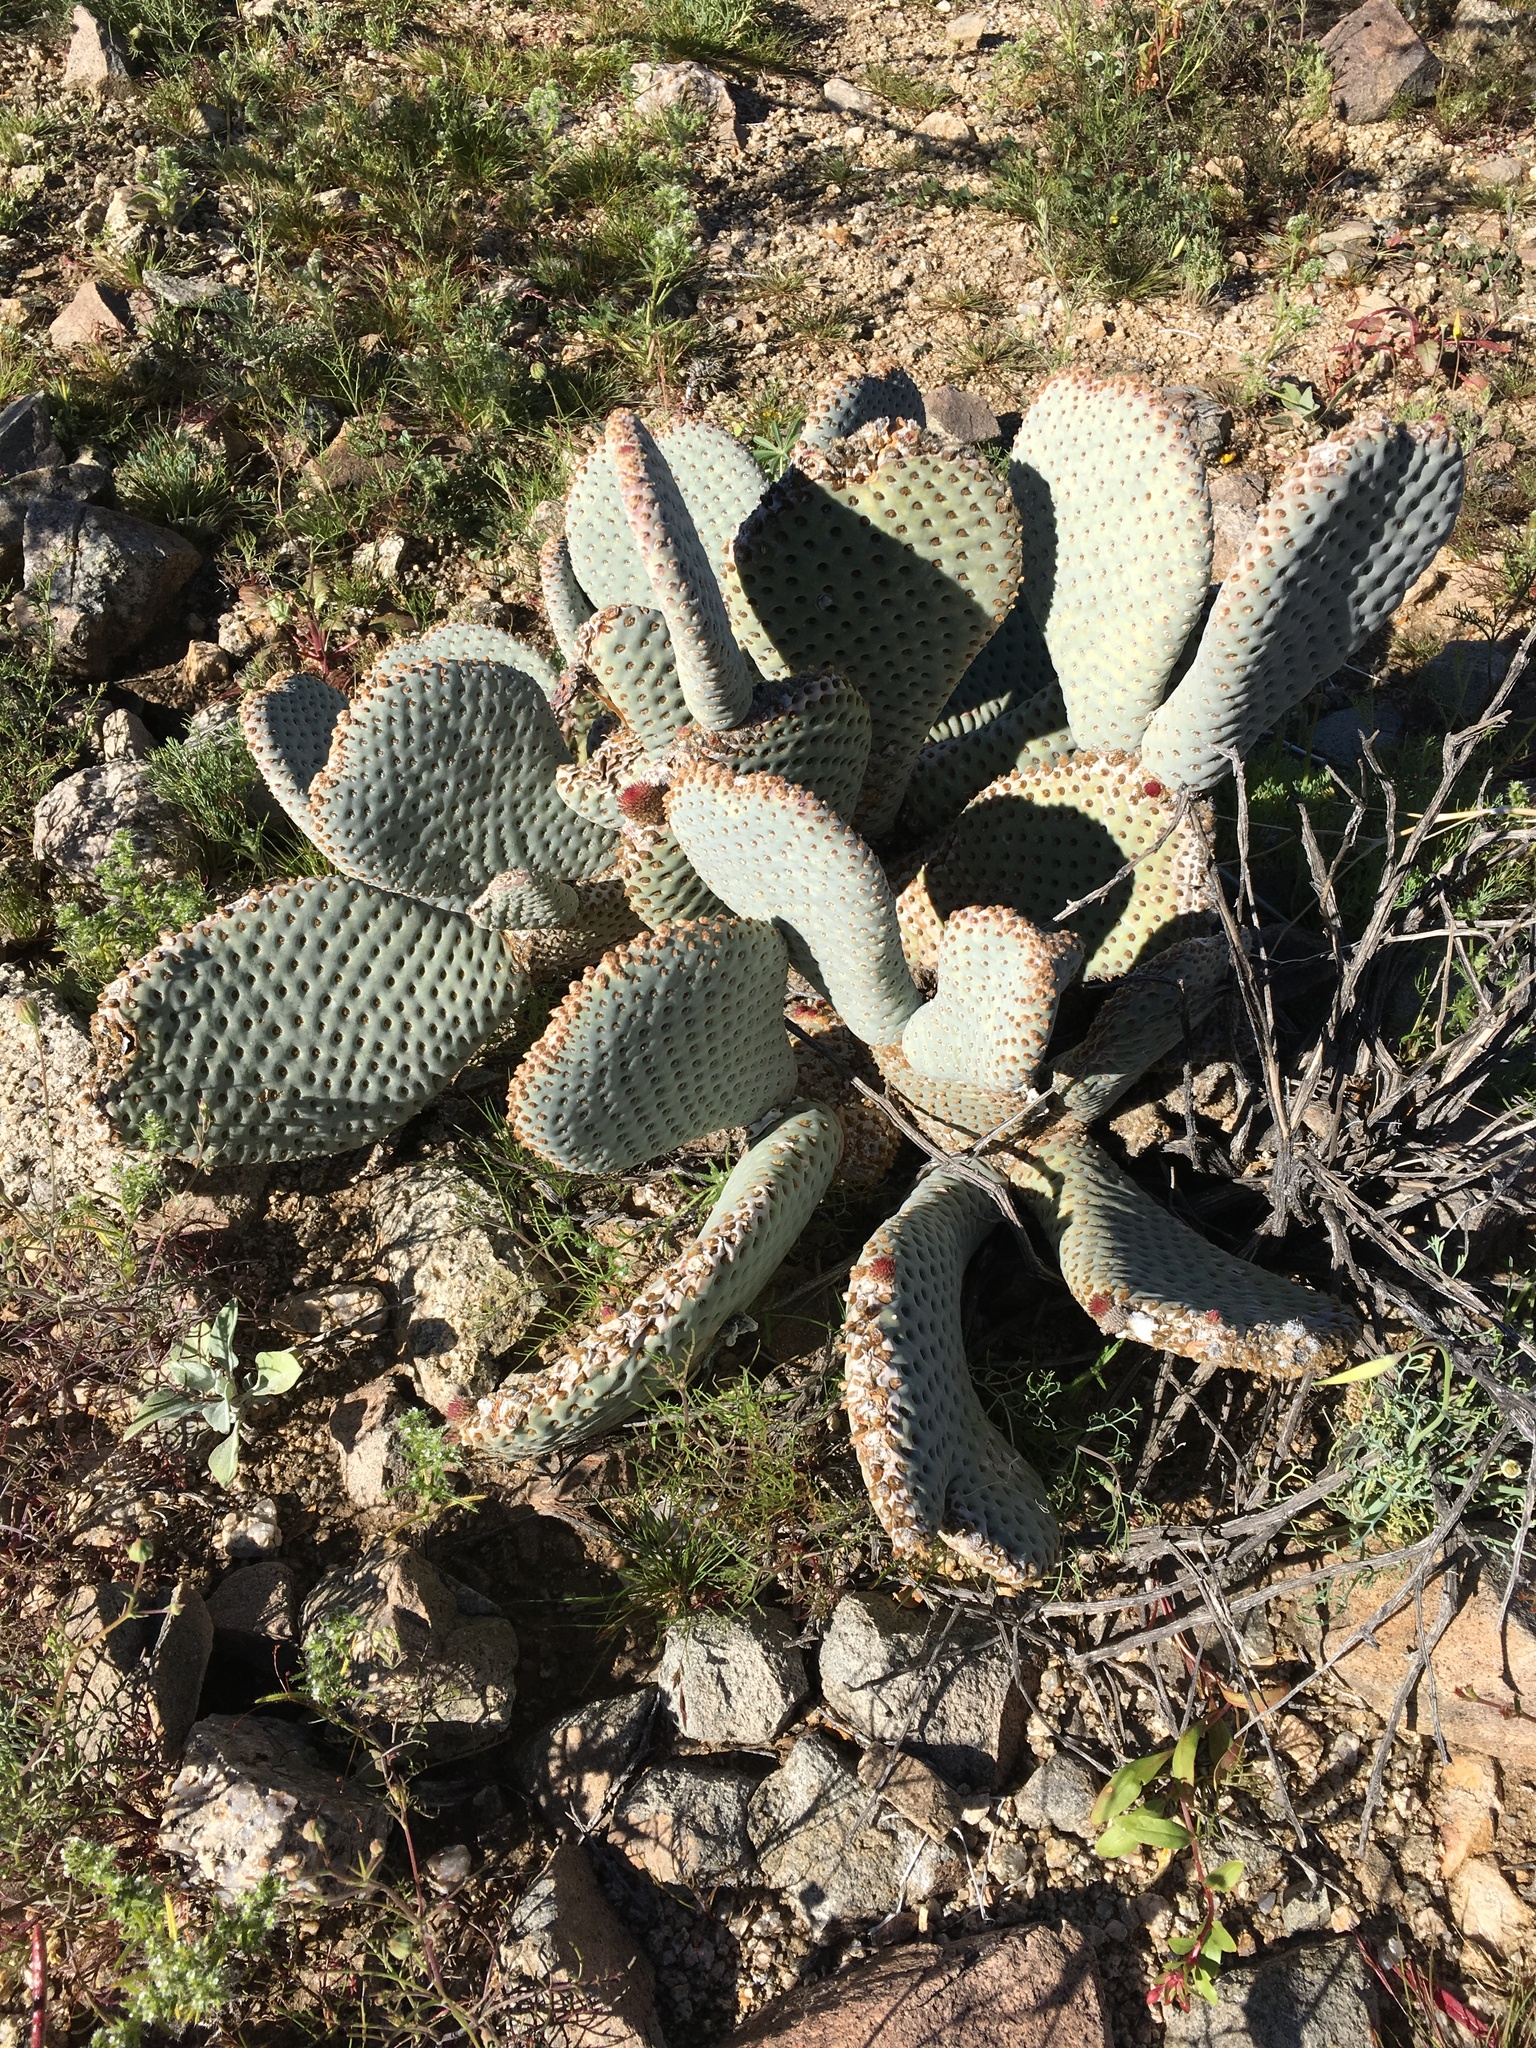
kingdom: Plantae
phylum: Tracheophyta
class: Magnoliopsida
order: Caryophyllales
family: Cactaceae
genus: Opuntia
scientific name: Opuntia basilaris
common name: Beavertail prickly-pear
